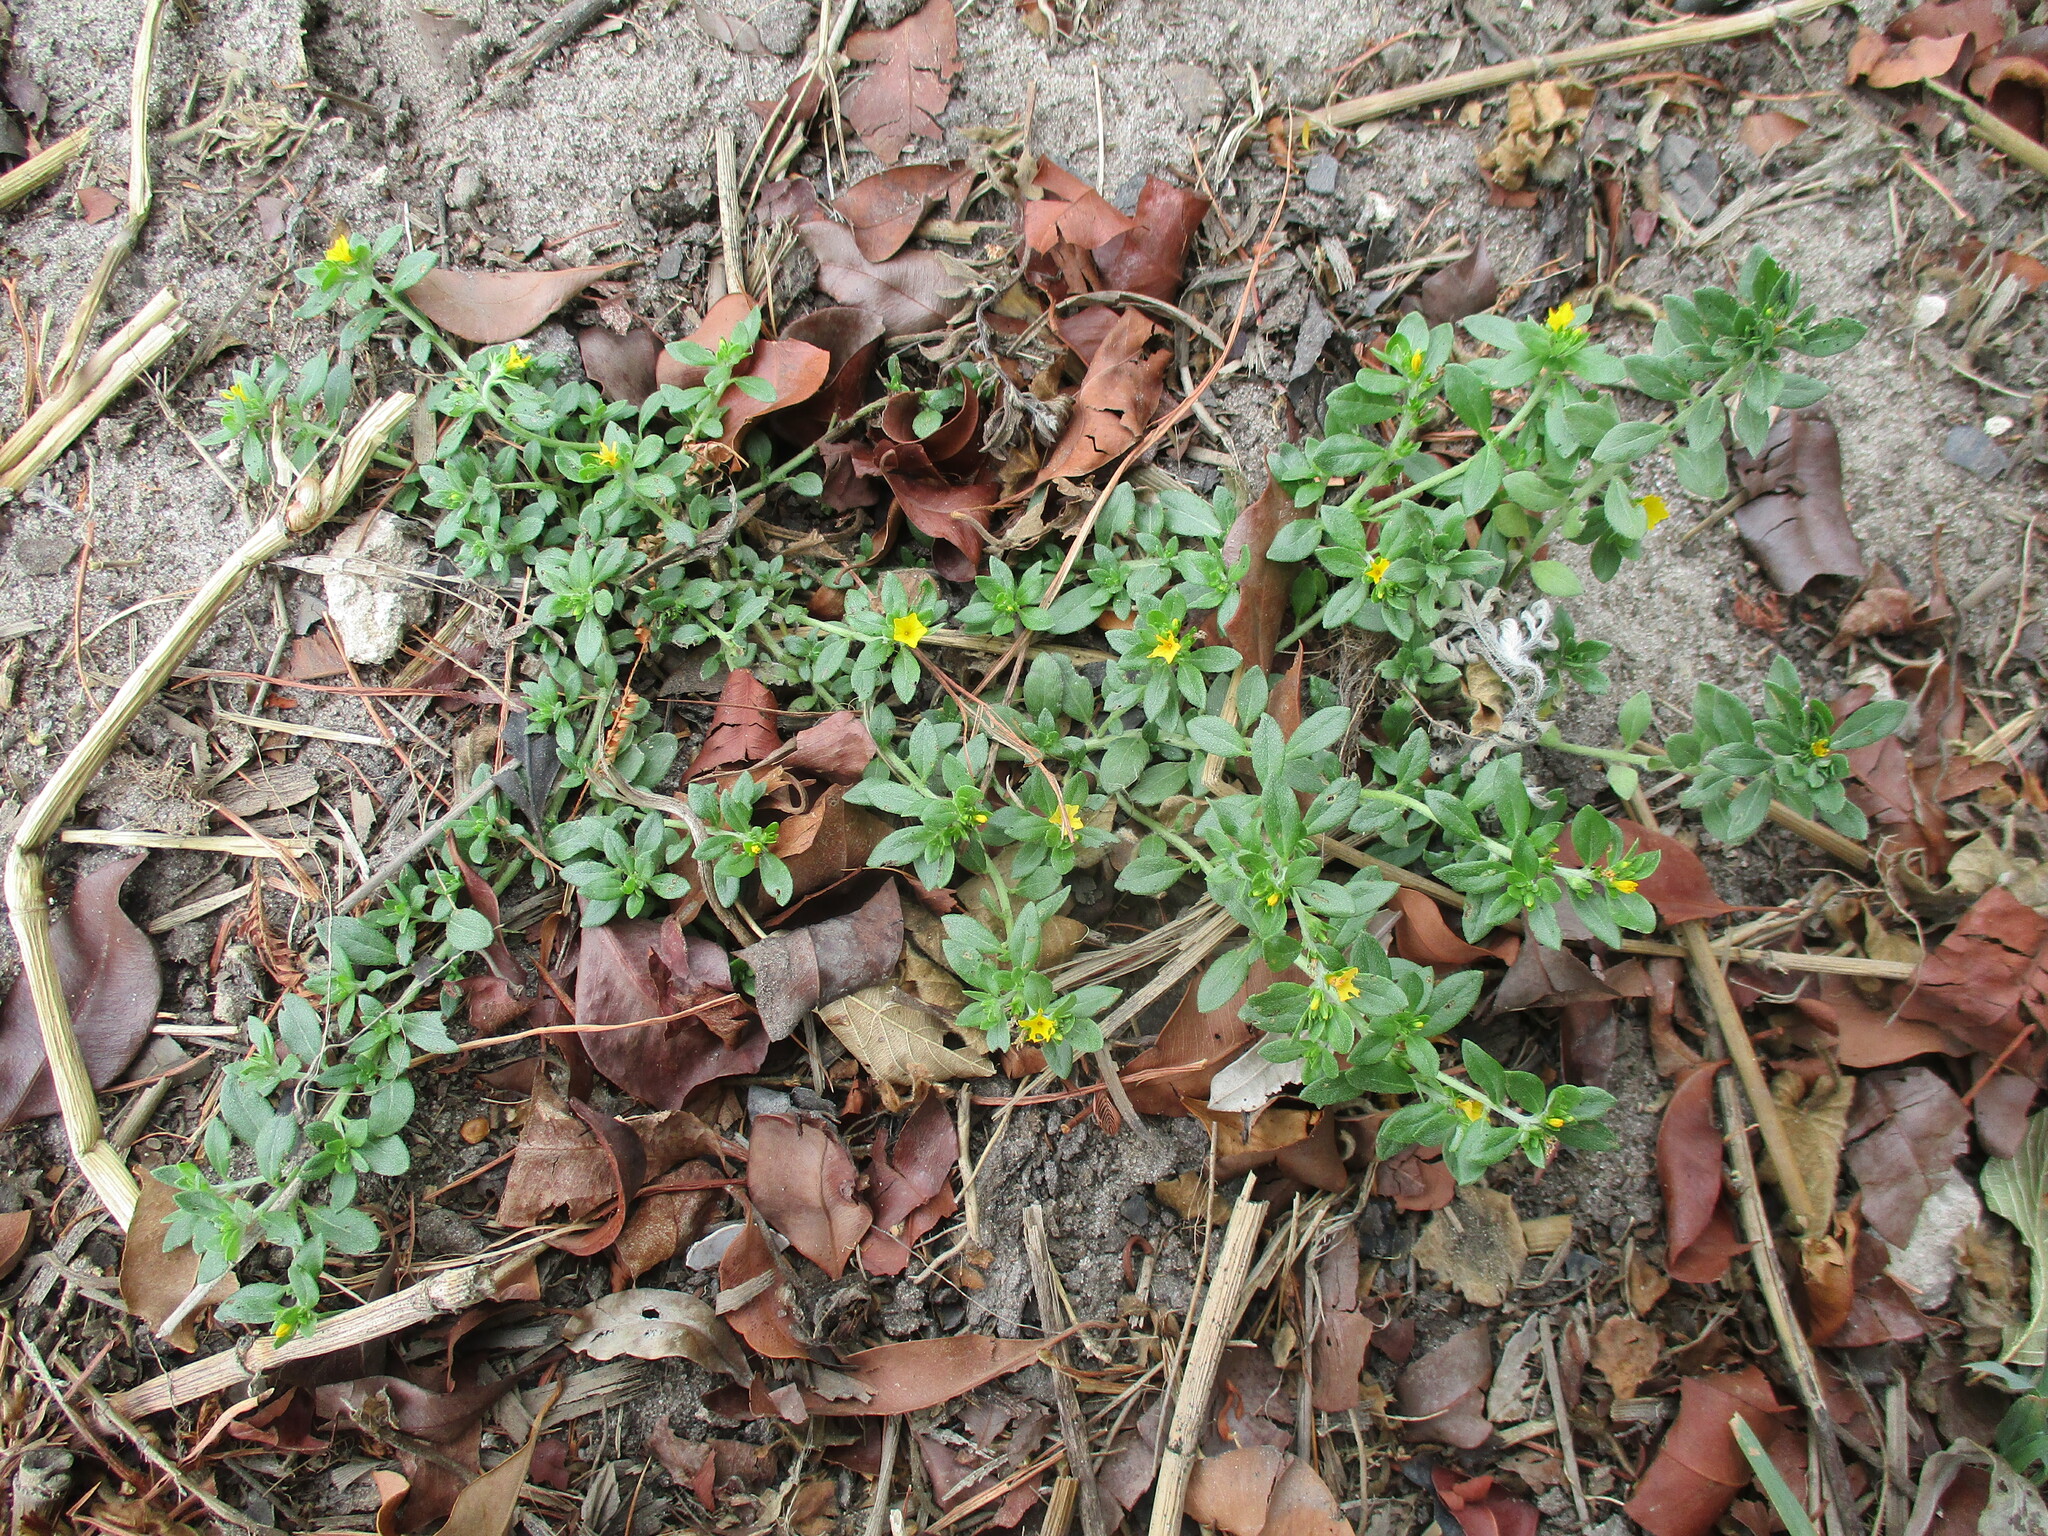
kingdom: Plantae
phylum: Tracheophyta
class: Magnoliopsida
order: Boraginales
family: Heliotropiaceae
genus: Euploca
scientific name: Euploca baclei
